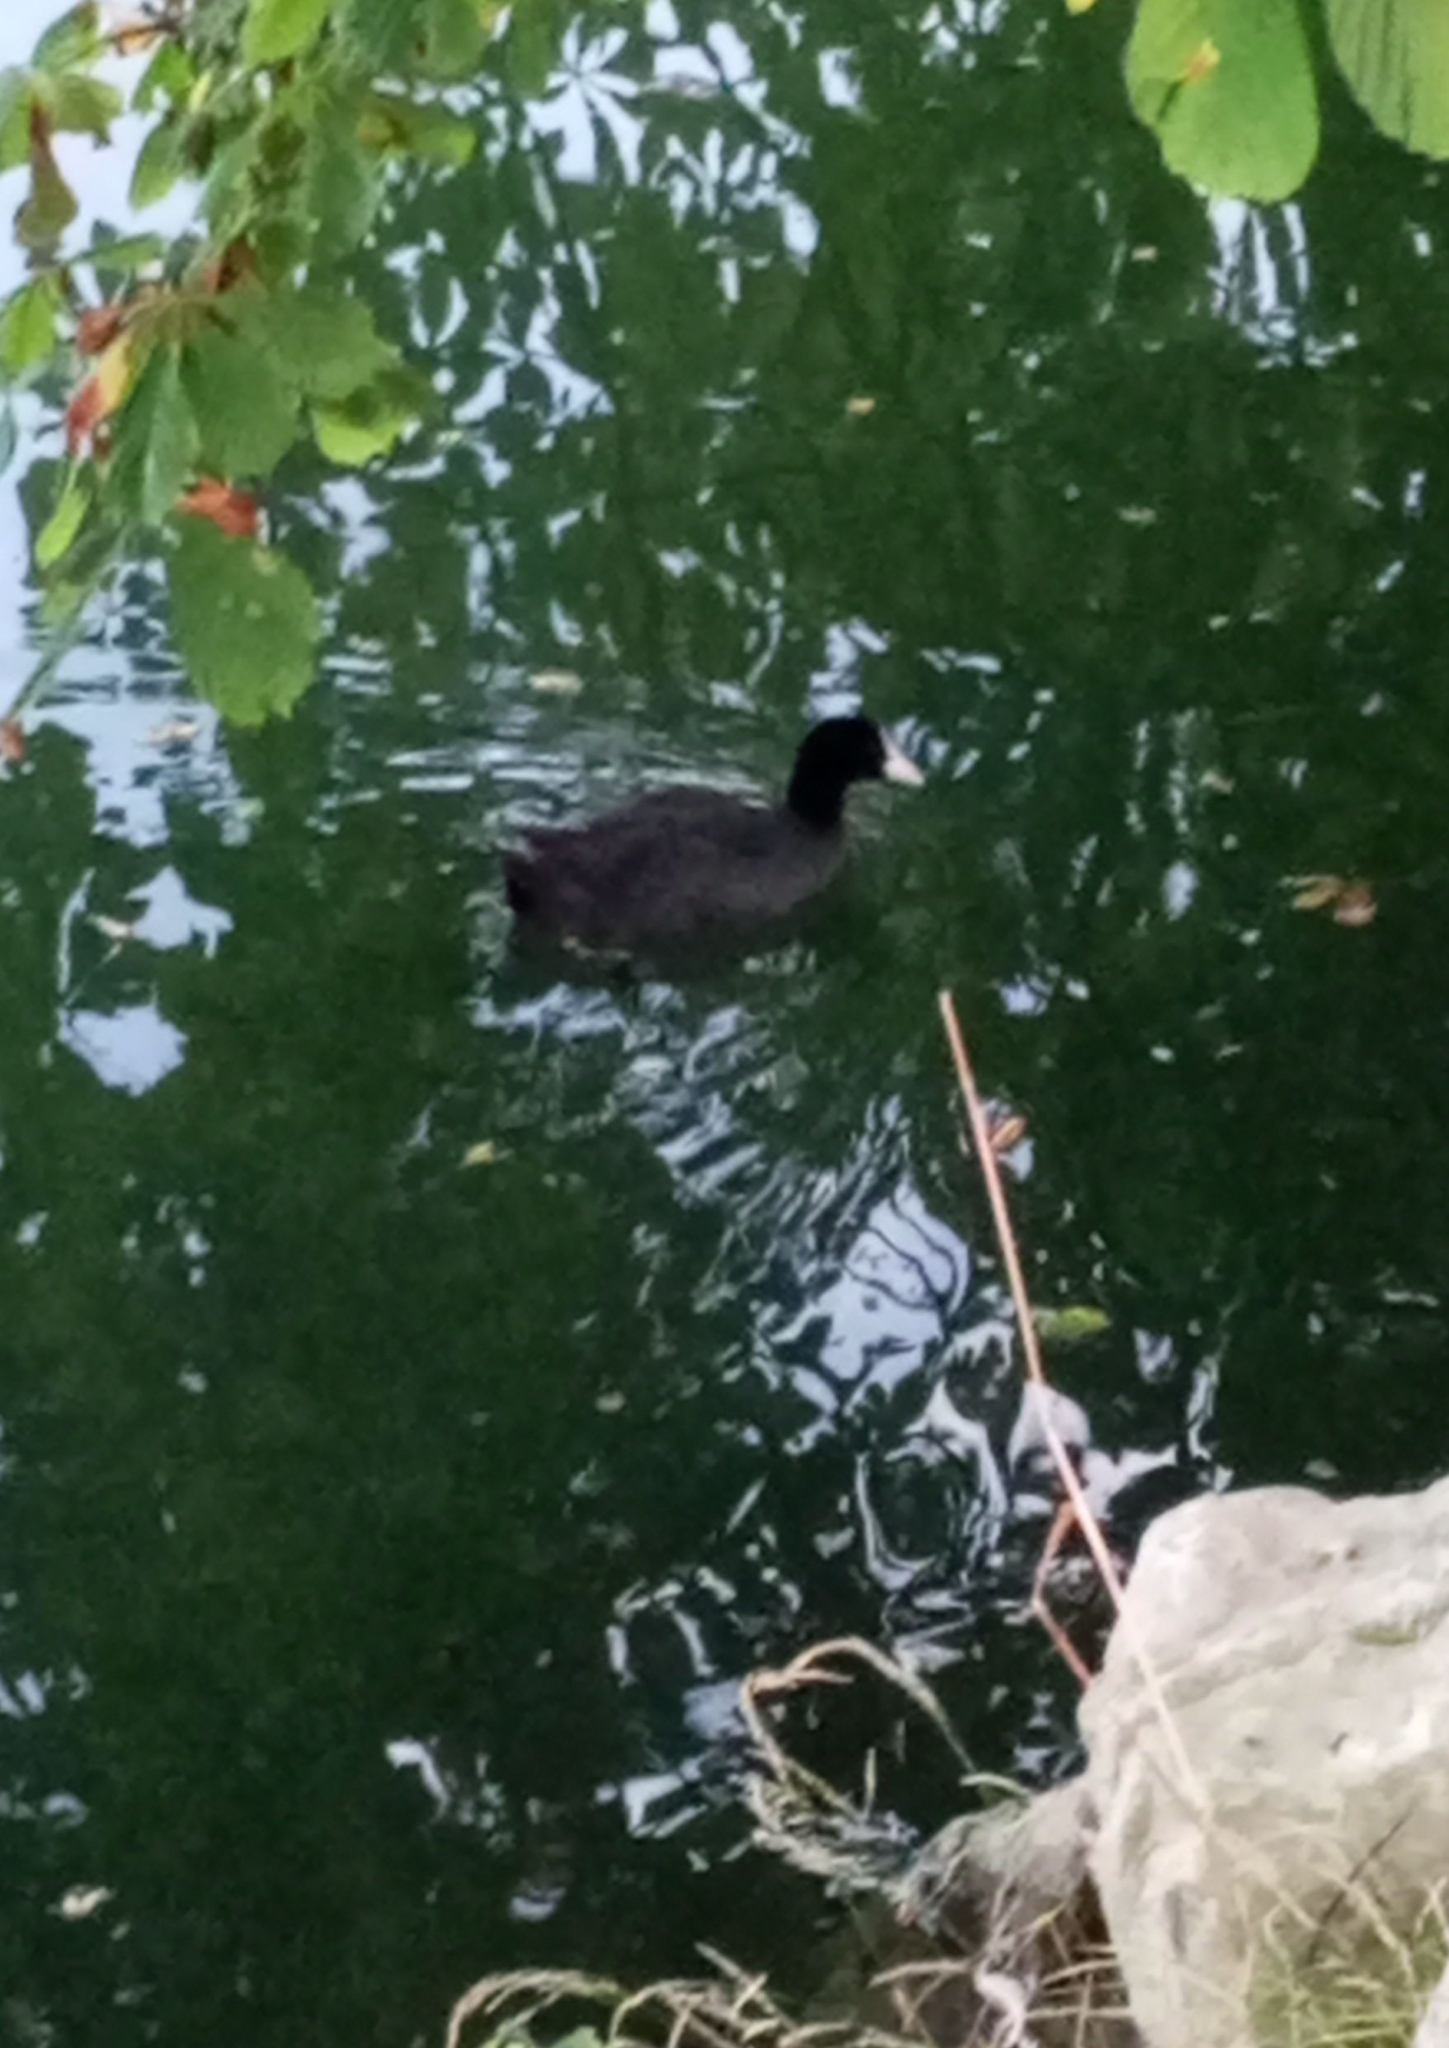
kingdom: Animalia
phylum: Chordata
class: Aves
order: Gruiformes
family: Rallidae
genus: Fulica
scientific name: Fulica atra
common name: Eurasian coot
